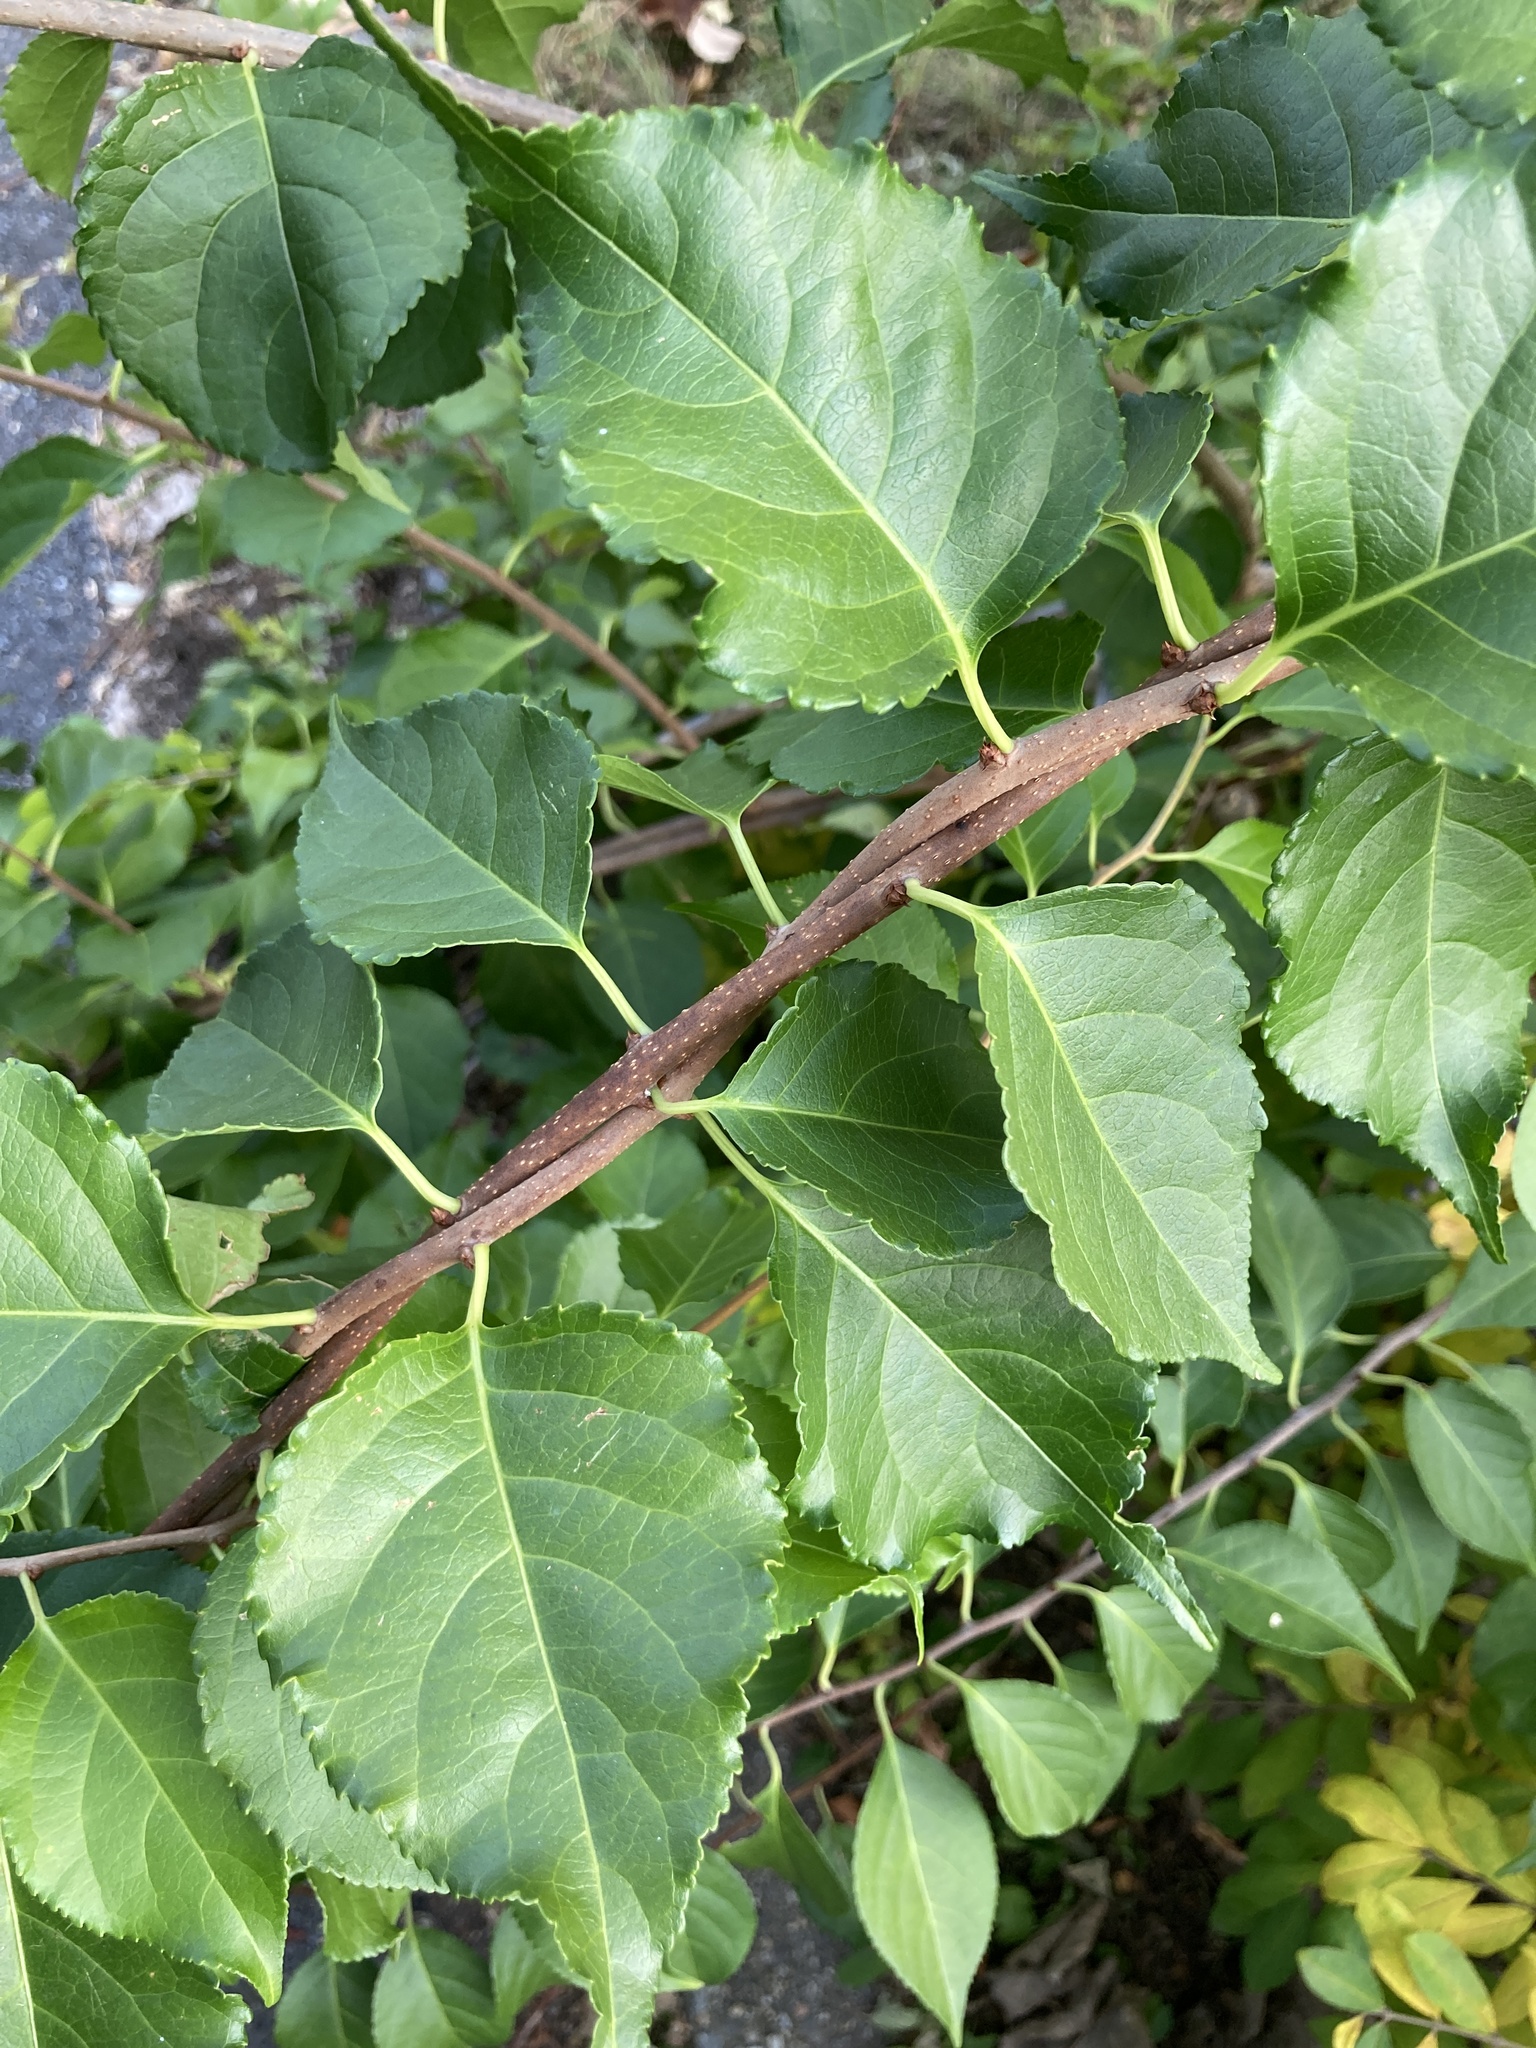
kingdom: Plantae
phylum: Tracheophyta
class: Magnoliopsida
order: Celastrales
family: Celastraceae
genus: Celastrus
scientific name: Celastrus orbiculatus
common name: Oriental bittersweet
